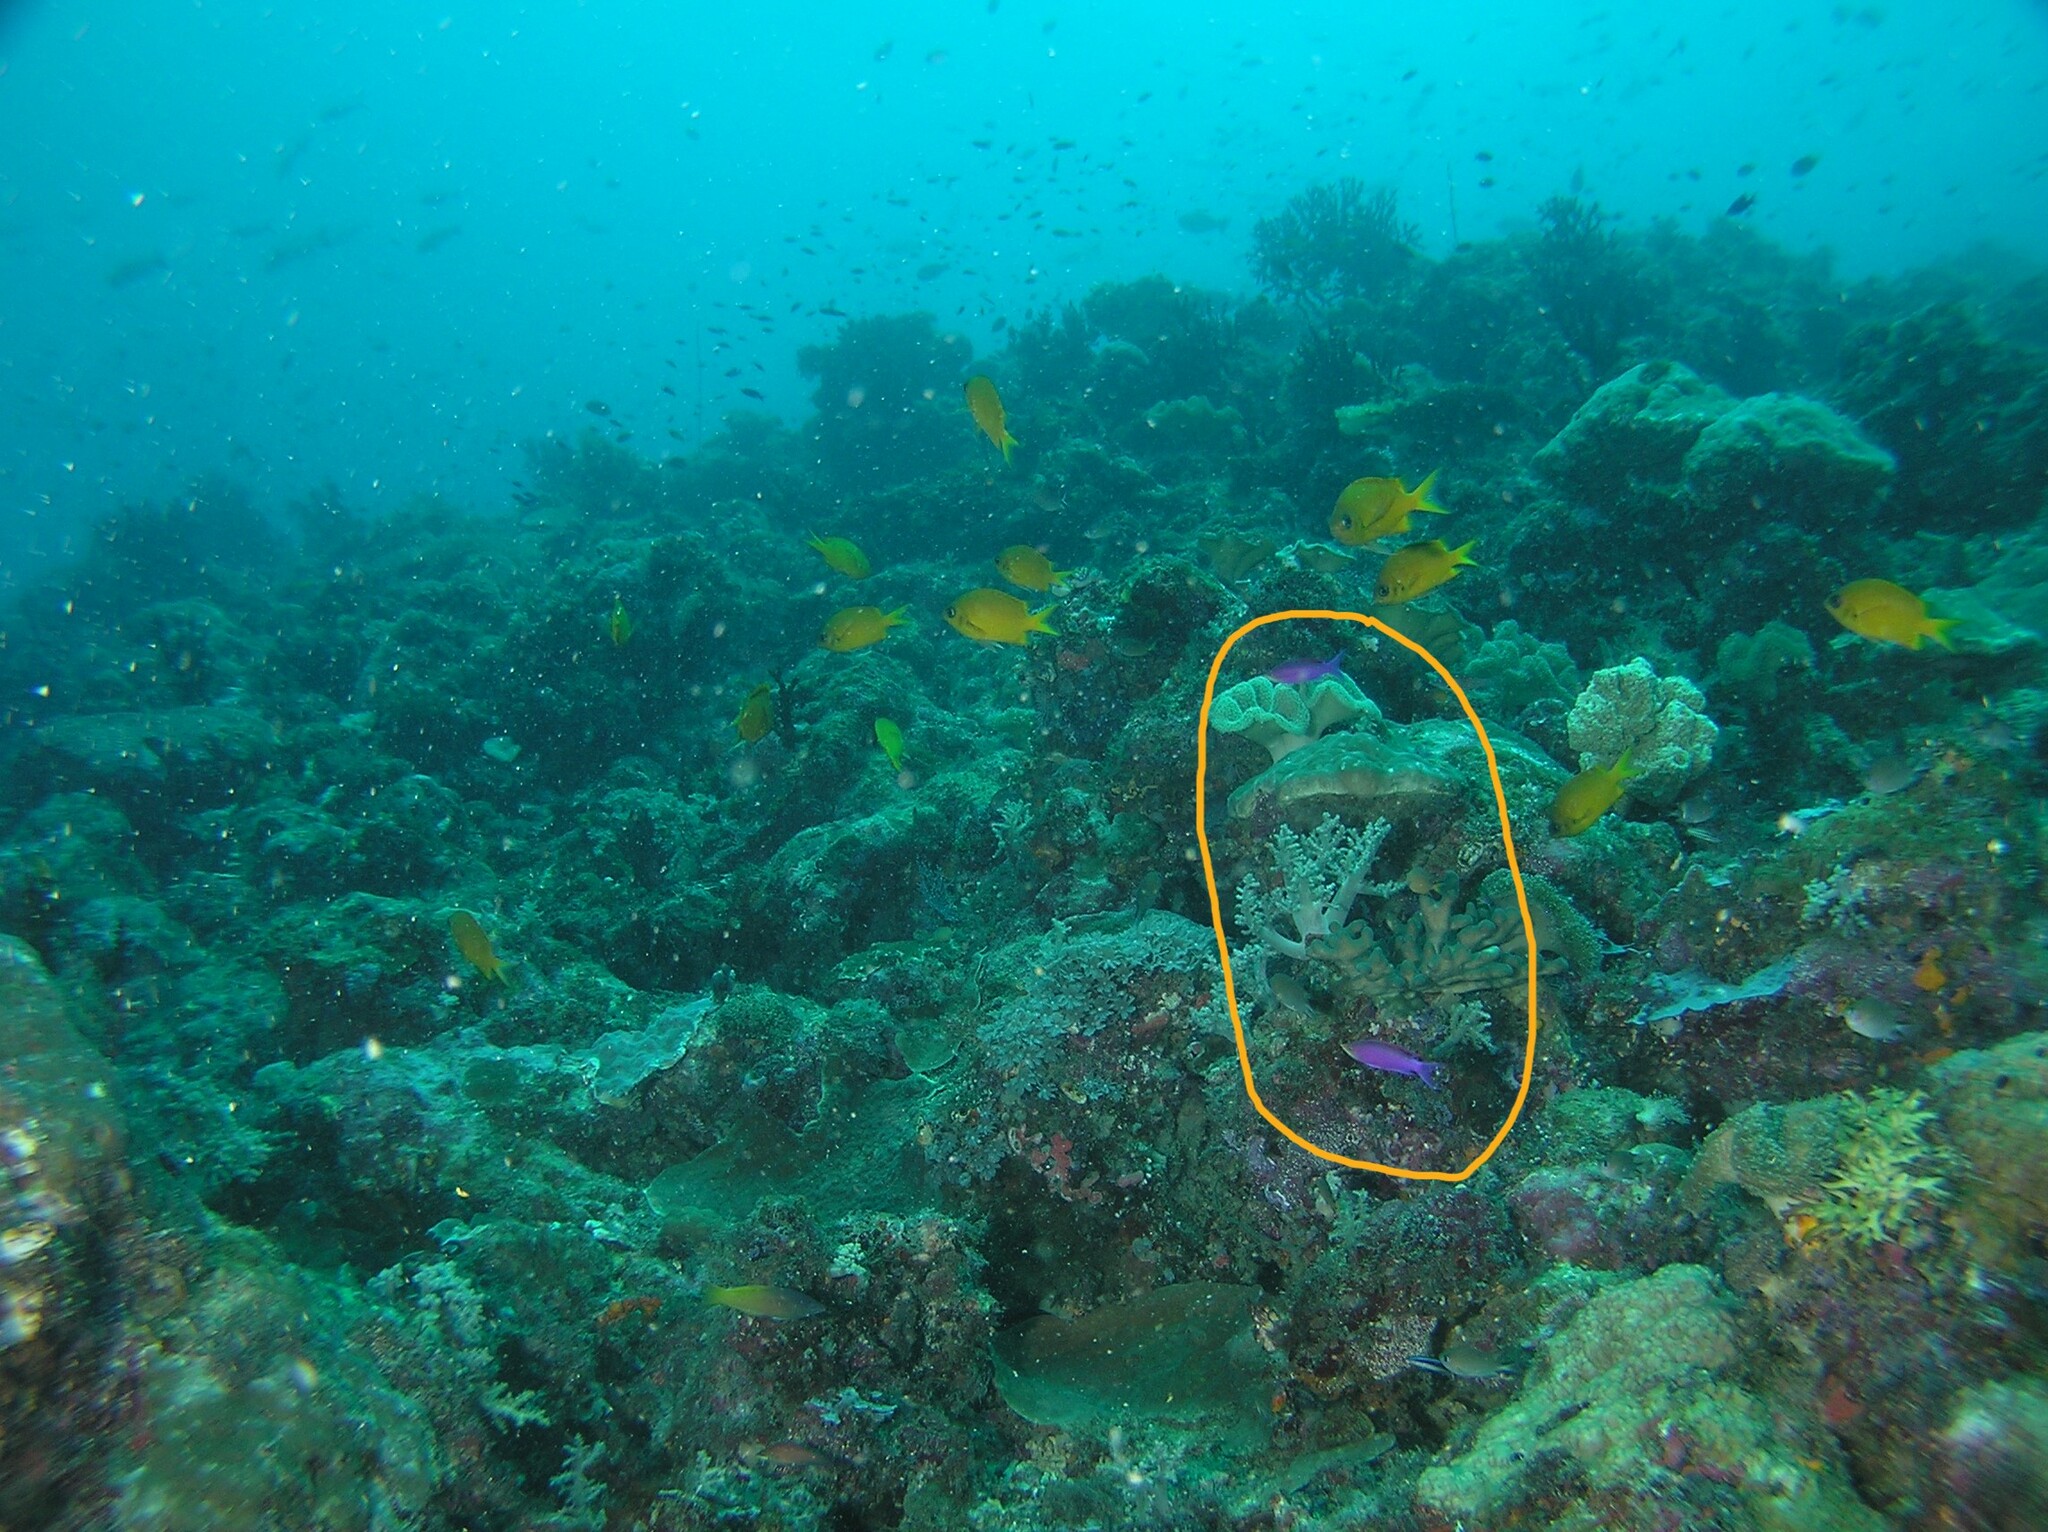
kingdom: Animalia
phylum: Chordata
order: Perciformes
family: Serranidae
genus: Pseudanthias
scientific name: Pseudanthias tuka
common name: Purple queen
